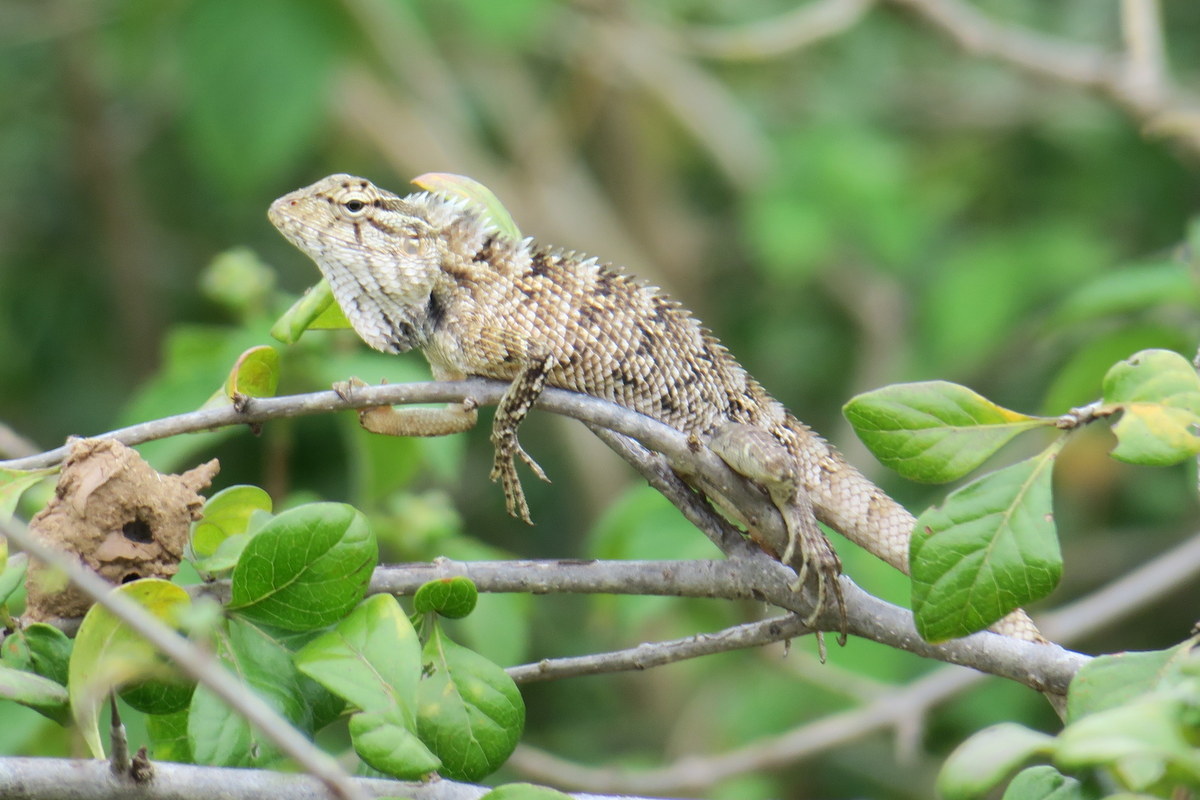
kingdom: Animalia
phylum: Chordata
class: Squamata
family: Agamidae
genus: Calotes
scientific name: Calotes versicolor
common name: Oriental garden lizard
